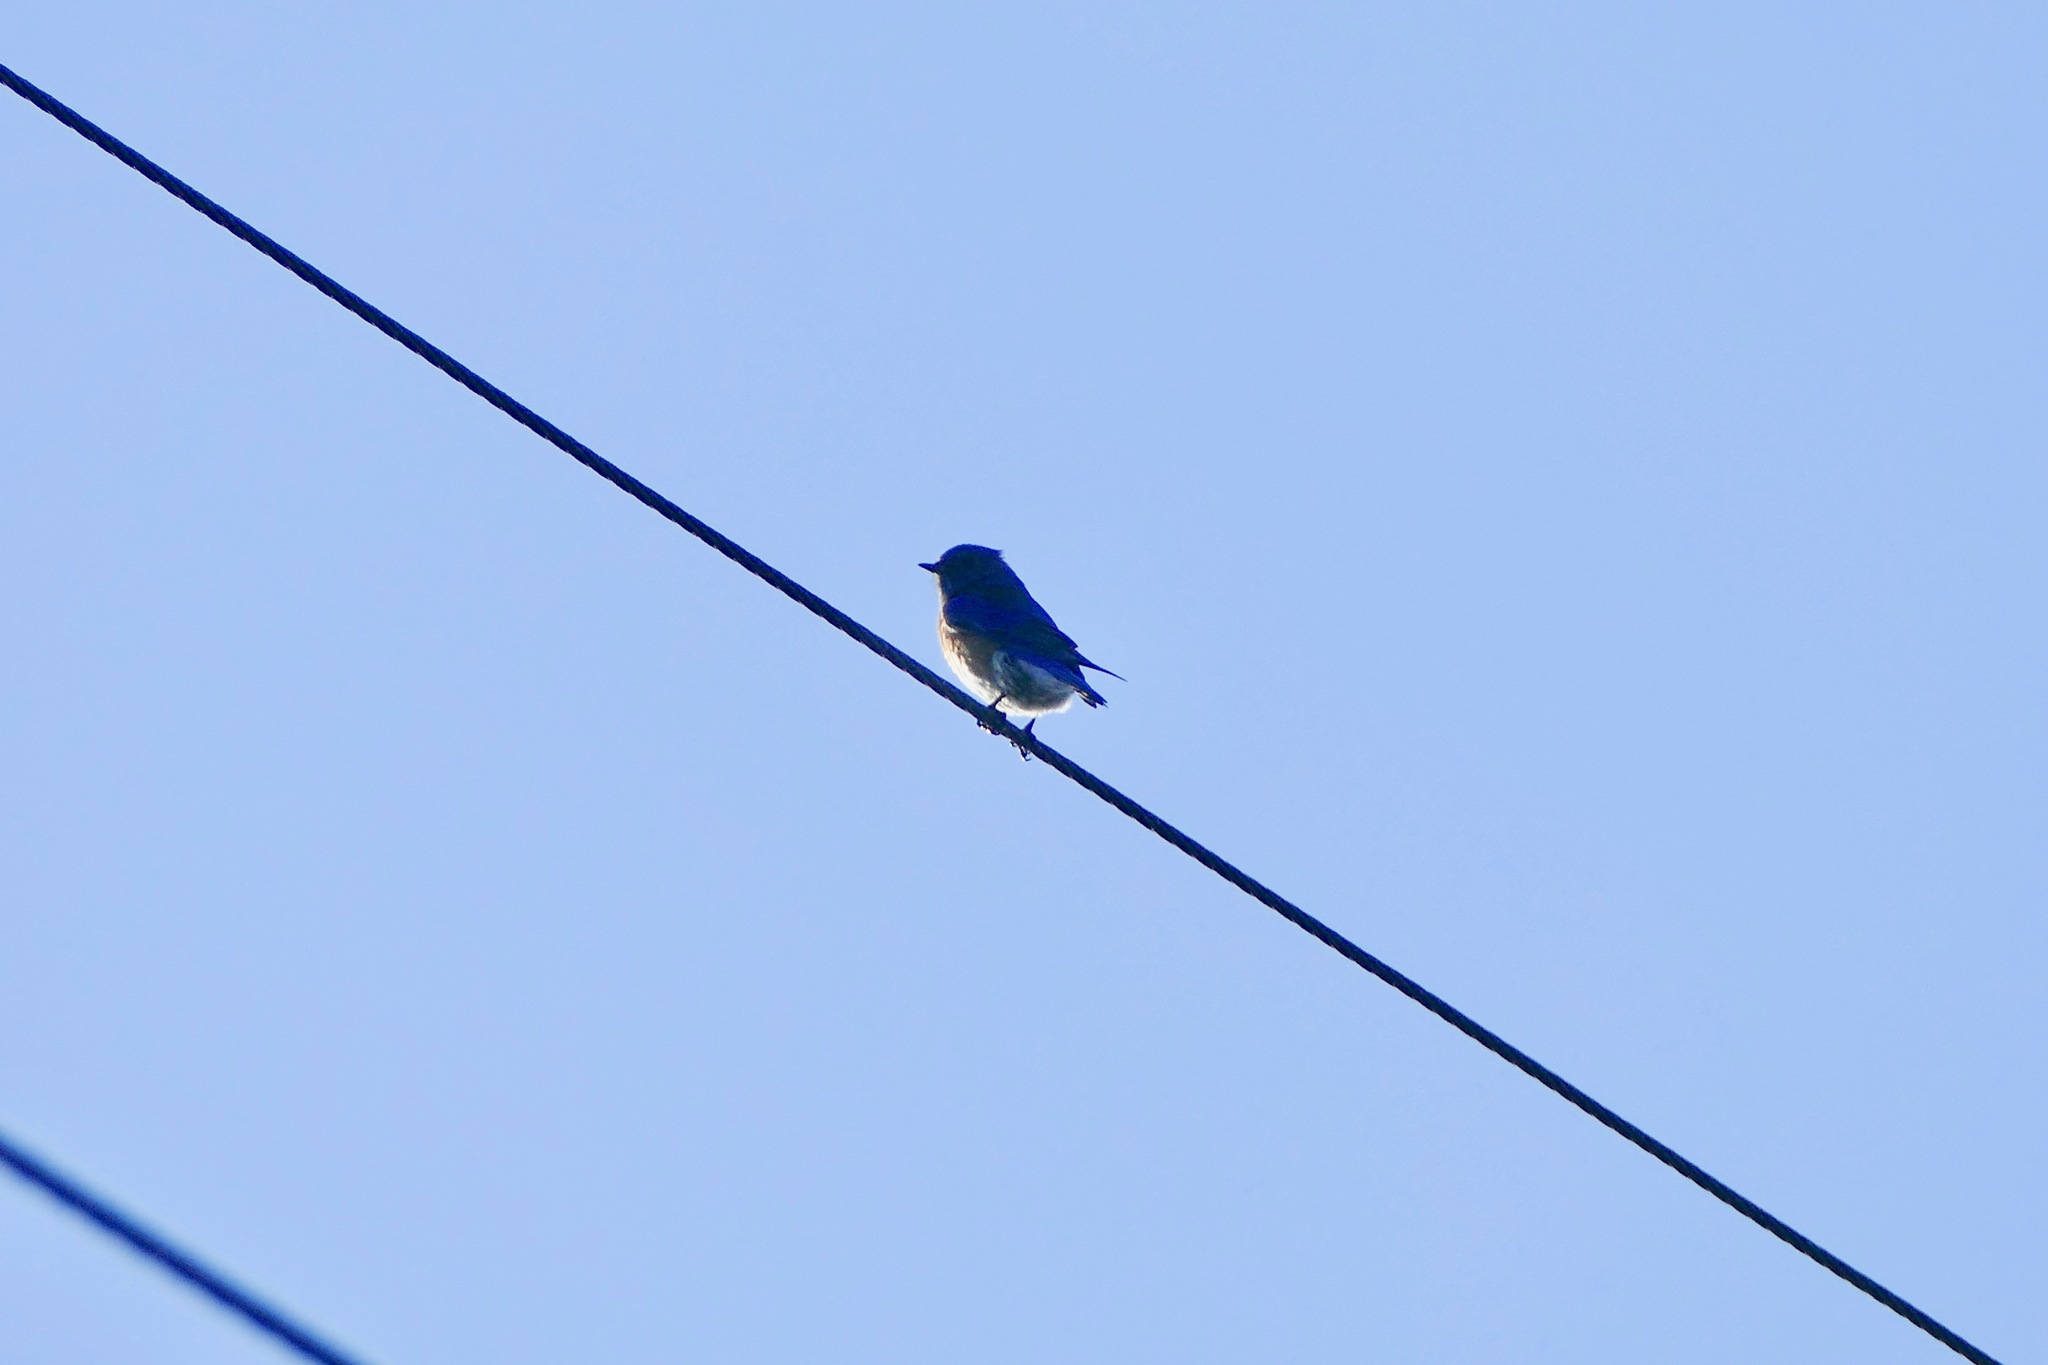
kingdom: Animalia
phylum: Chordata
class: Aves
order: Passeriformes
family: Turdidae
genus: Sialia
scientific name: Sialia mexicana
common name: Western bluebird
